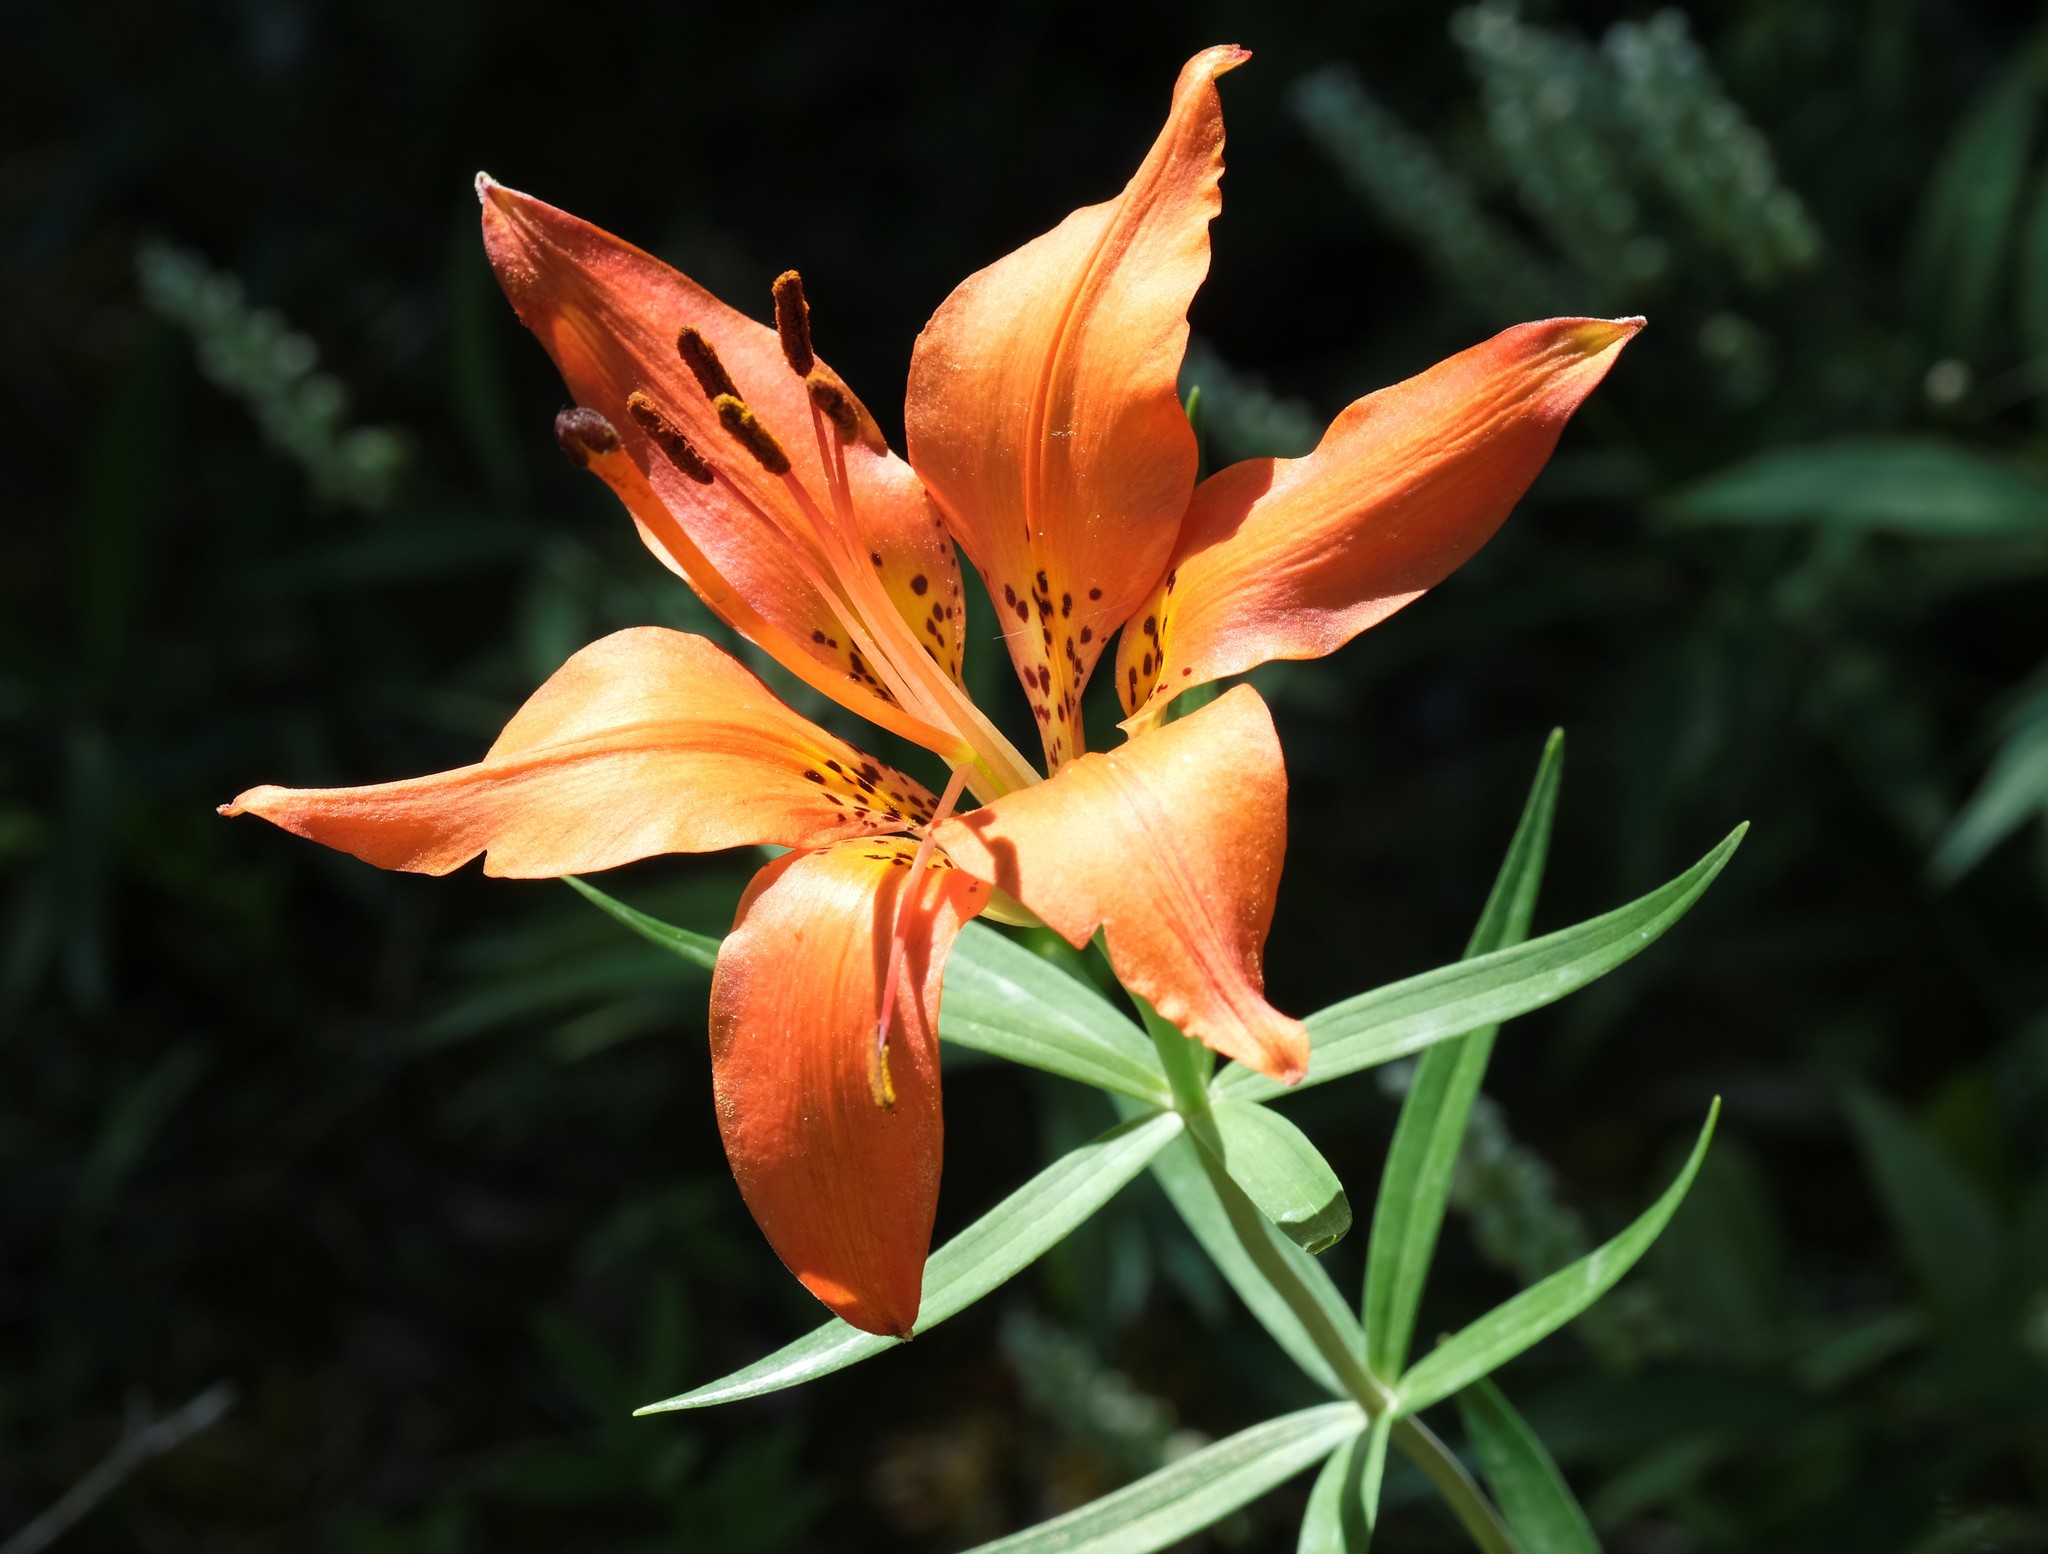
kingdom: Plantae
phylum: Tracheophyta
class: Liliopsida
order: Liliales
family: Liliaceae
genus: Lilium
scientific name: Lilium philadelphicum
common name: Red lily
